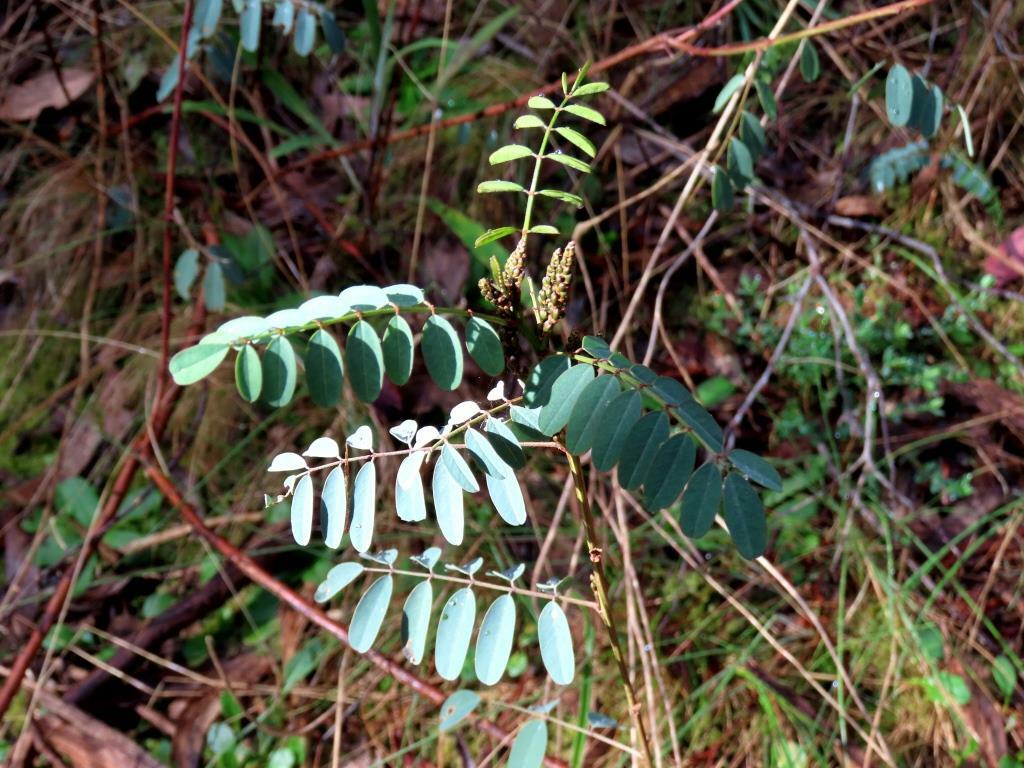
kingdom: Plantae
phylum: Tracheophyta
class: Magnoliopsida
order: Fabales
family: Fabaceae
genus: Indigofera
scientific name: Indigofera australis
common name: Australian indigo
